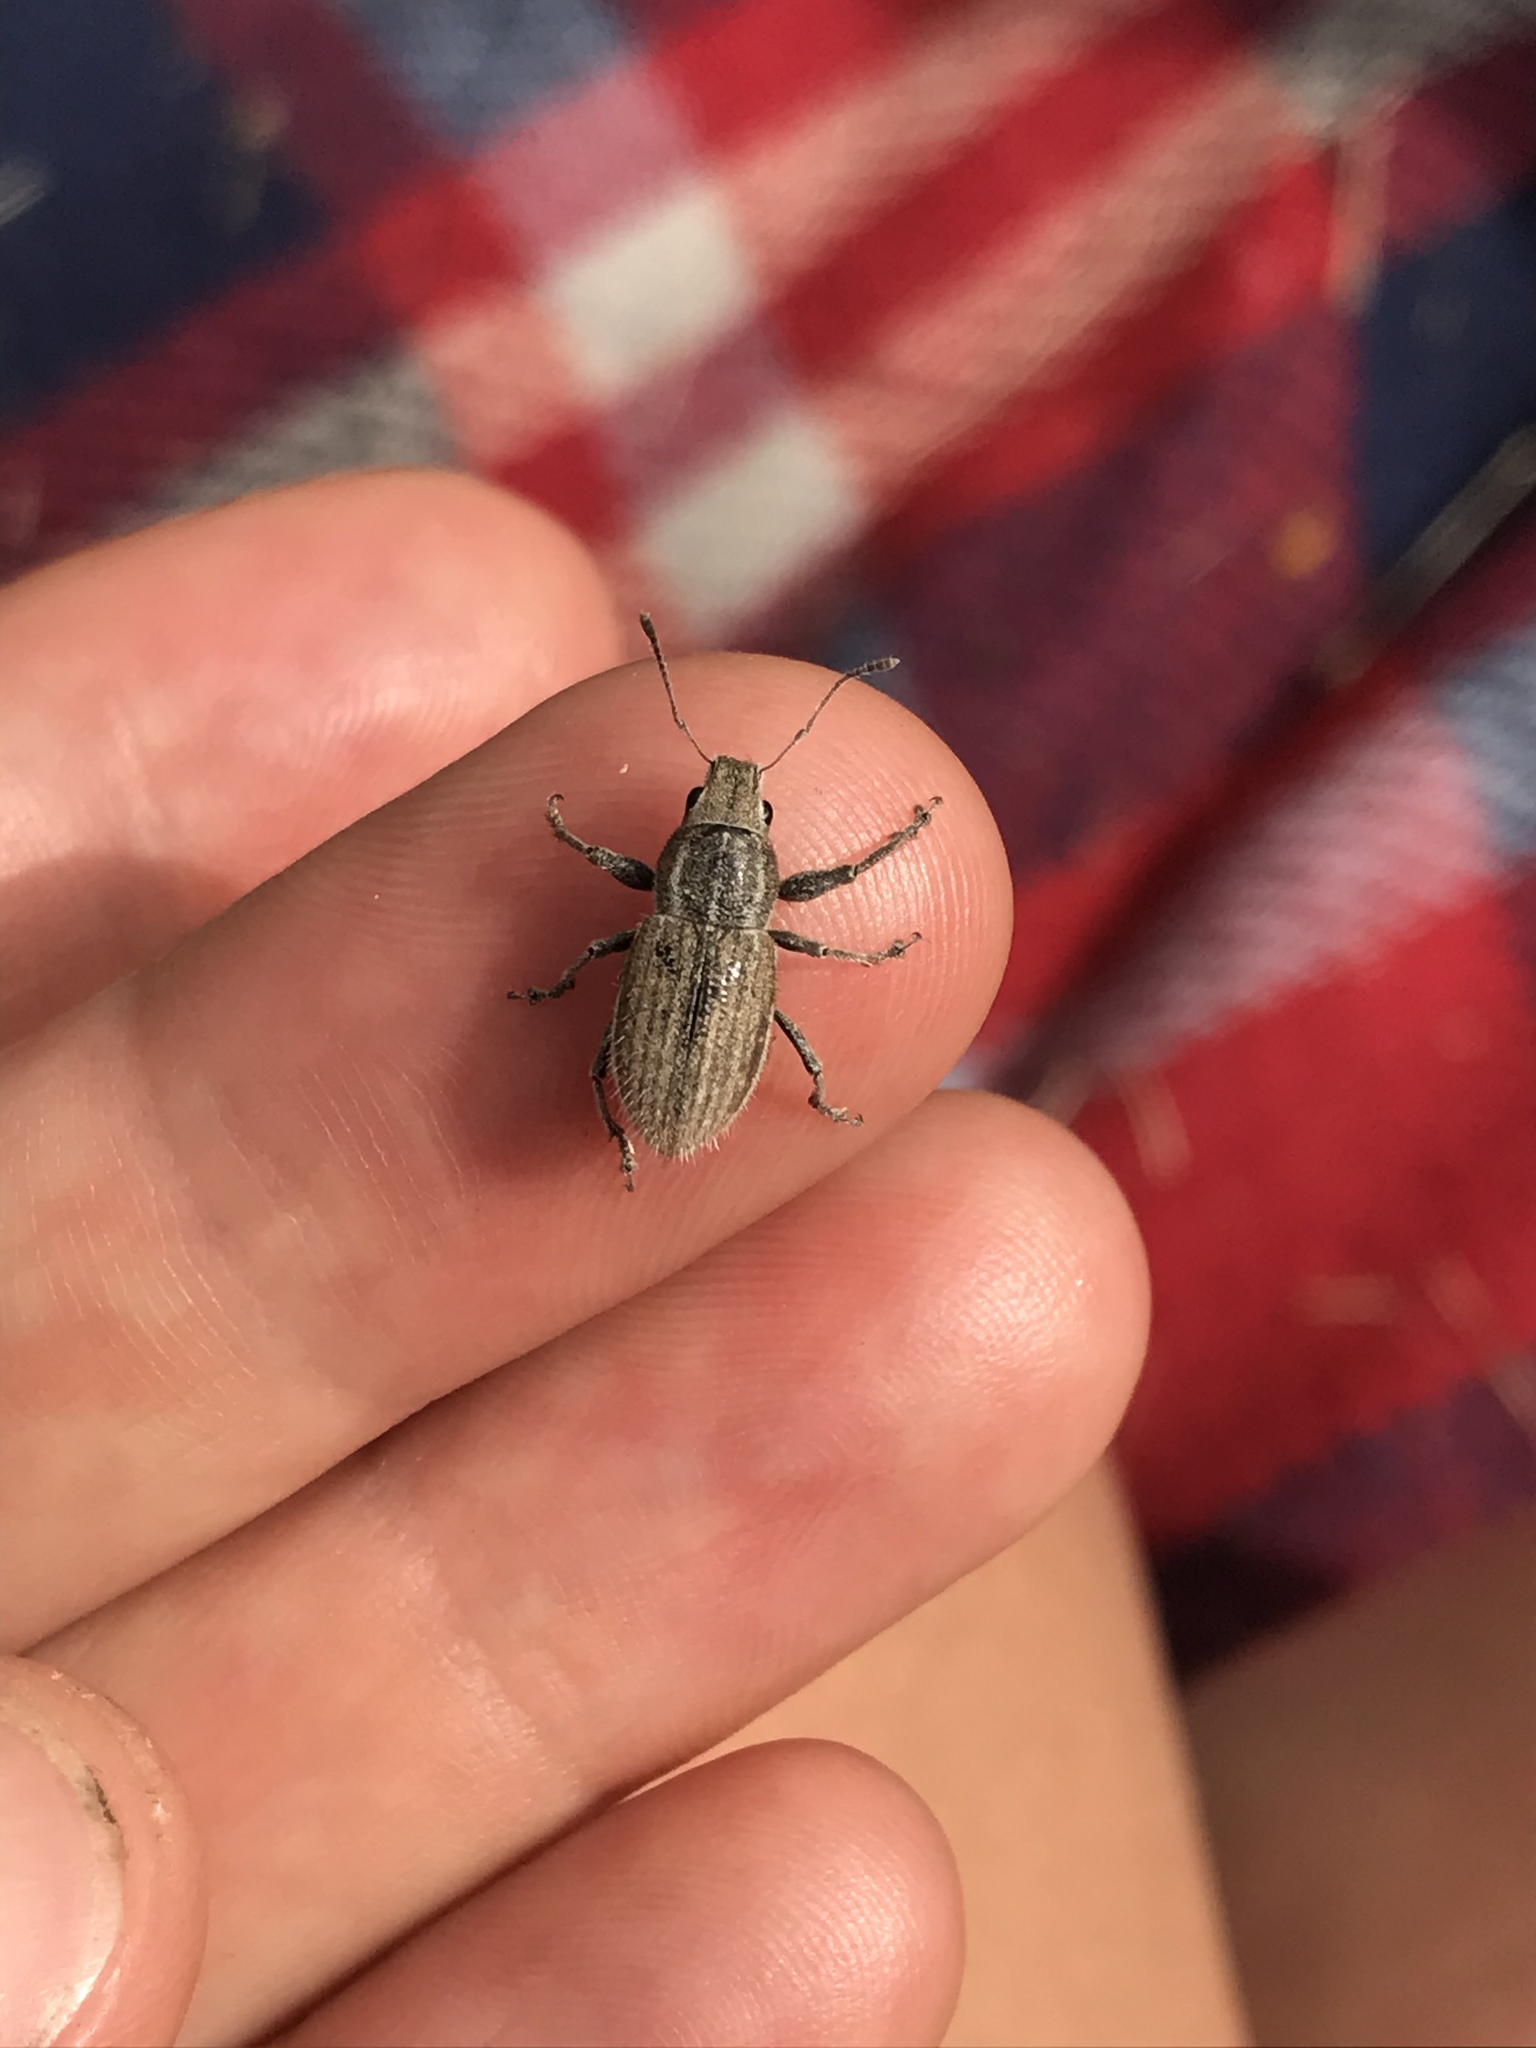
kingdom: Animalia
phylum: Arthropoda
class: Insecta
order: Coleoptera
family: Curculionidae
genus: Naupactus
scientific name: Naupactus leucoloma
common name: Whitefringed beetle
